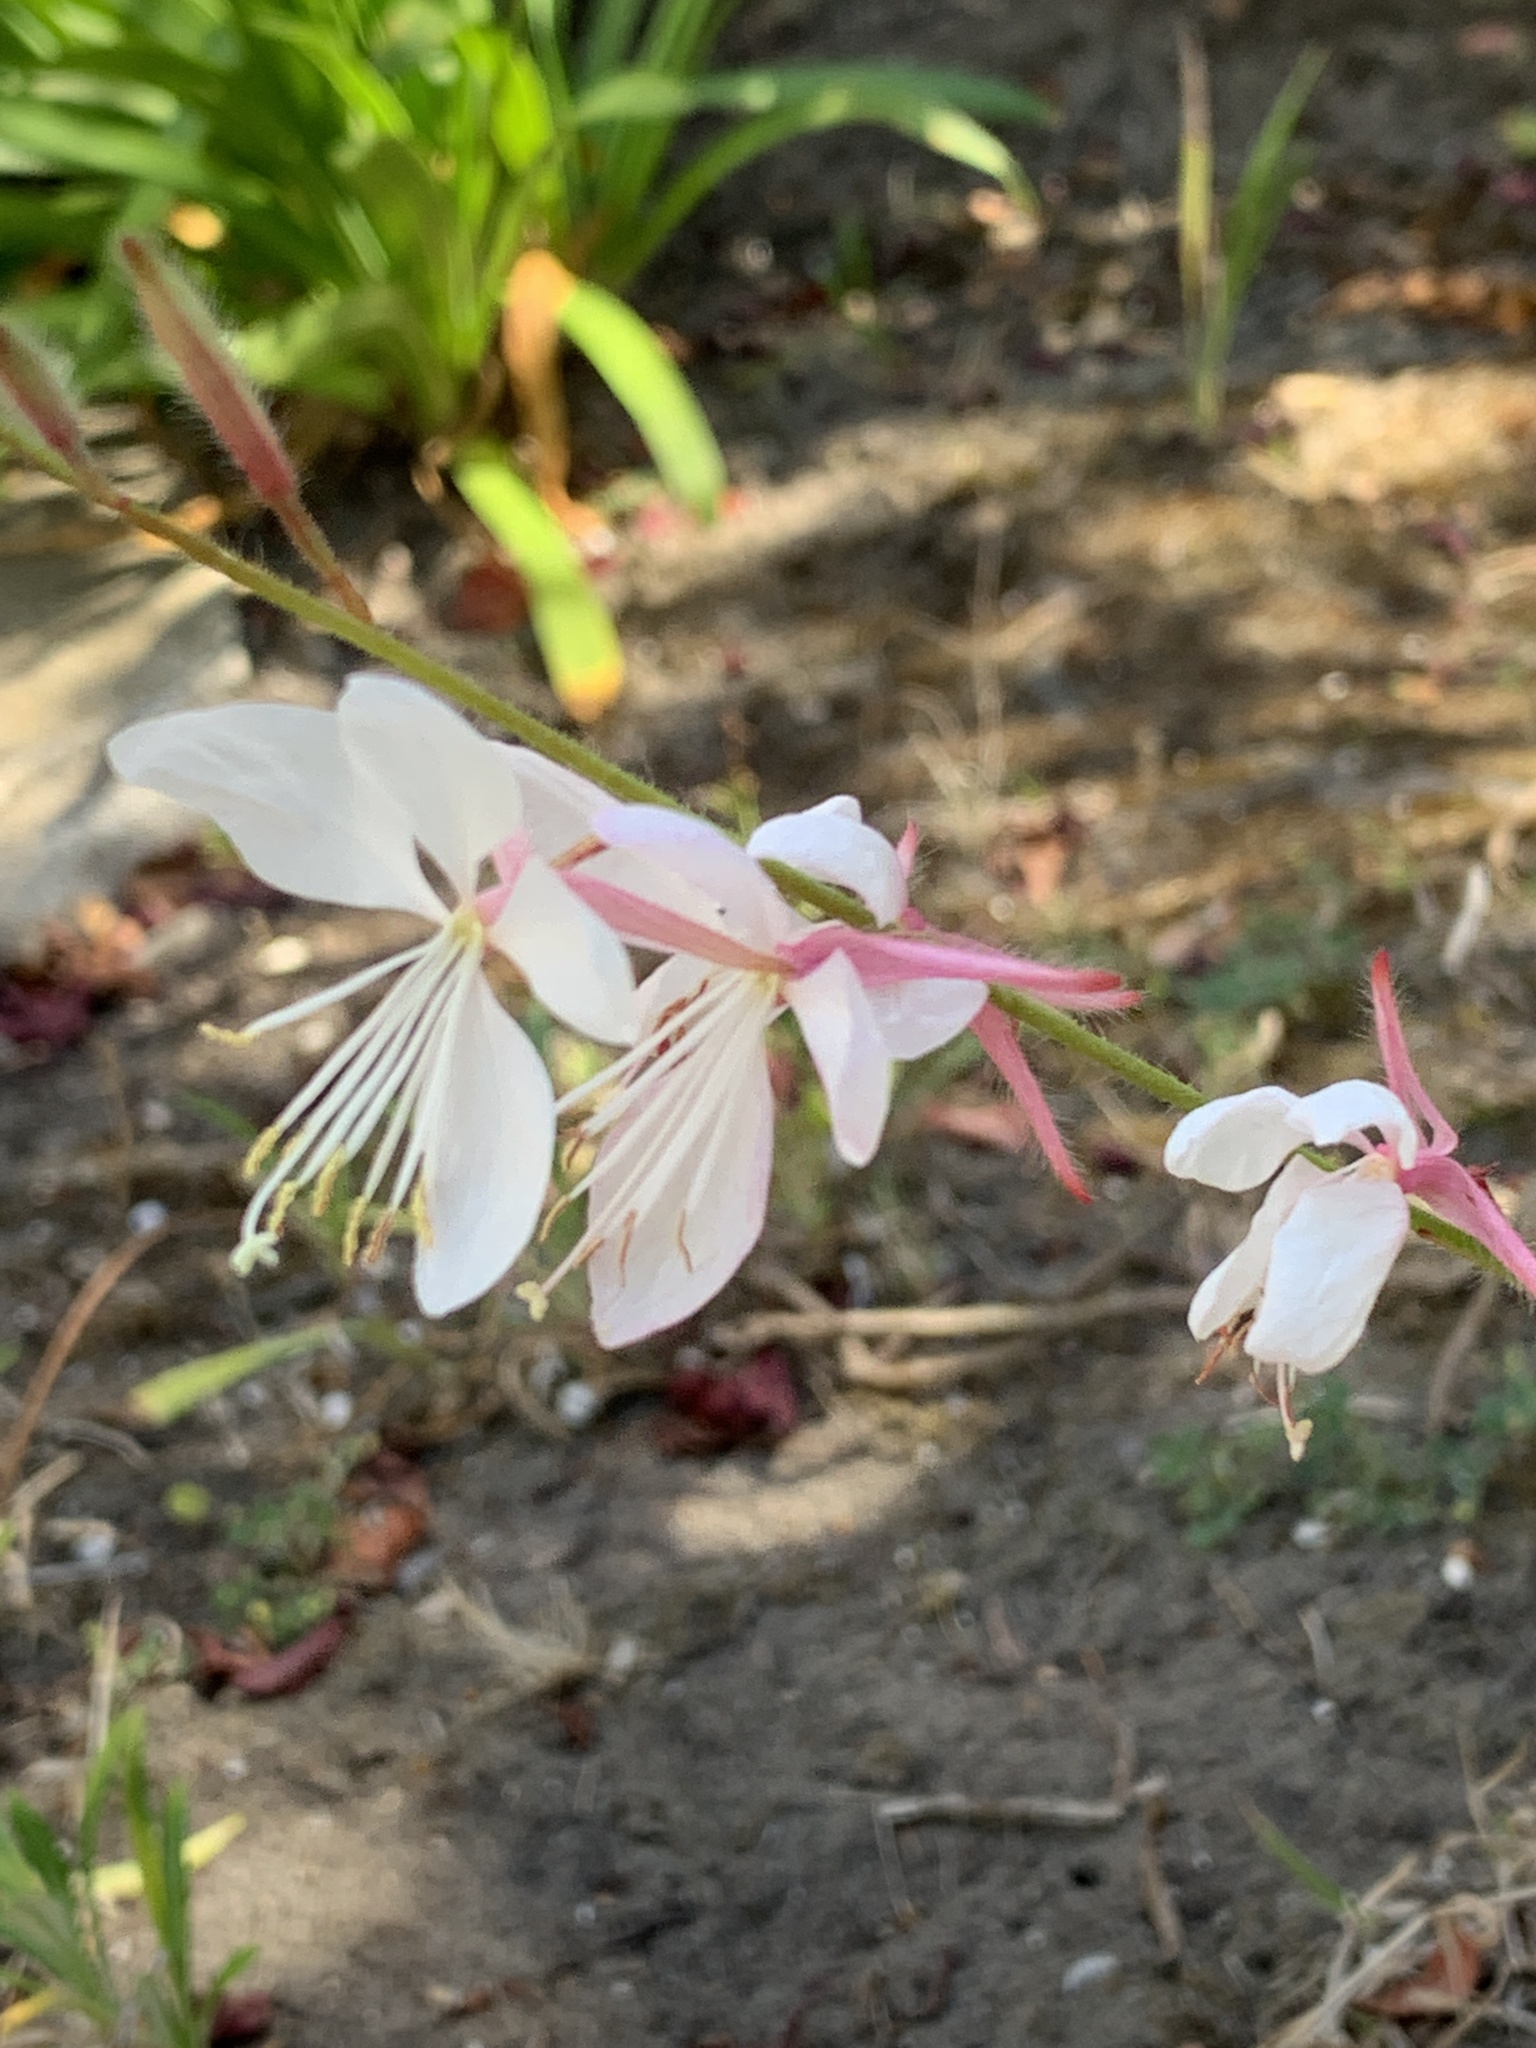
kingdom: Plantae
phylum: Tracheophyta
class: Magnoliopsida
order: Myrtales
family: Onagraceae
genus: Oenothera
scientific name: Oenothera lindheimeri
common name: Lindheimer's beeblossom
